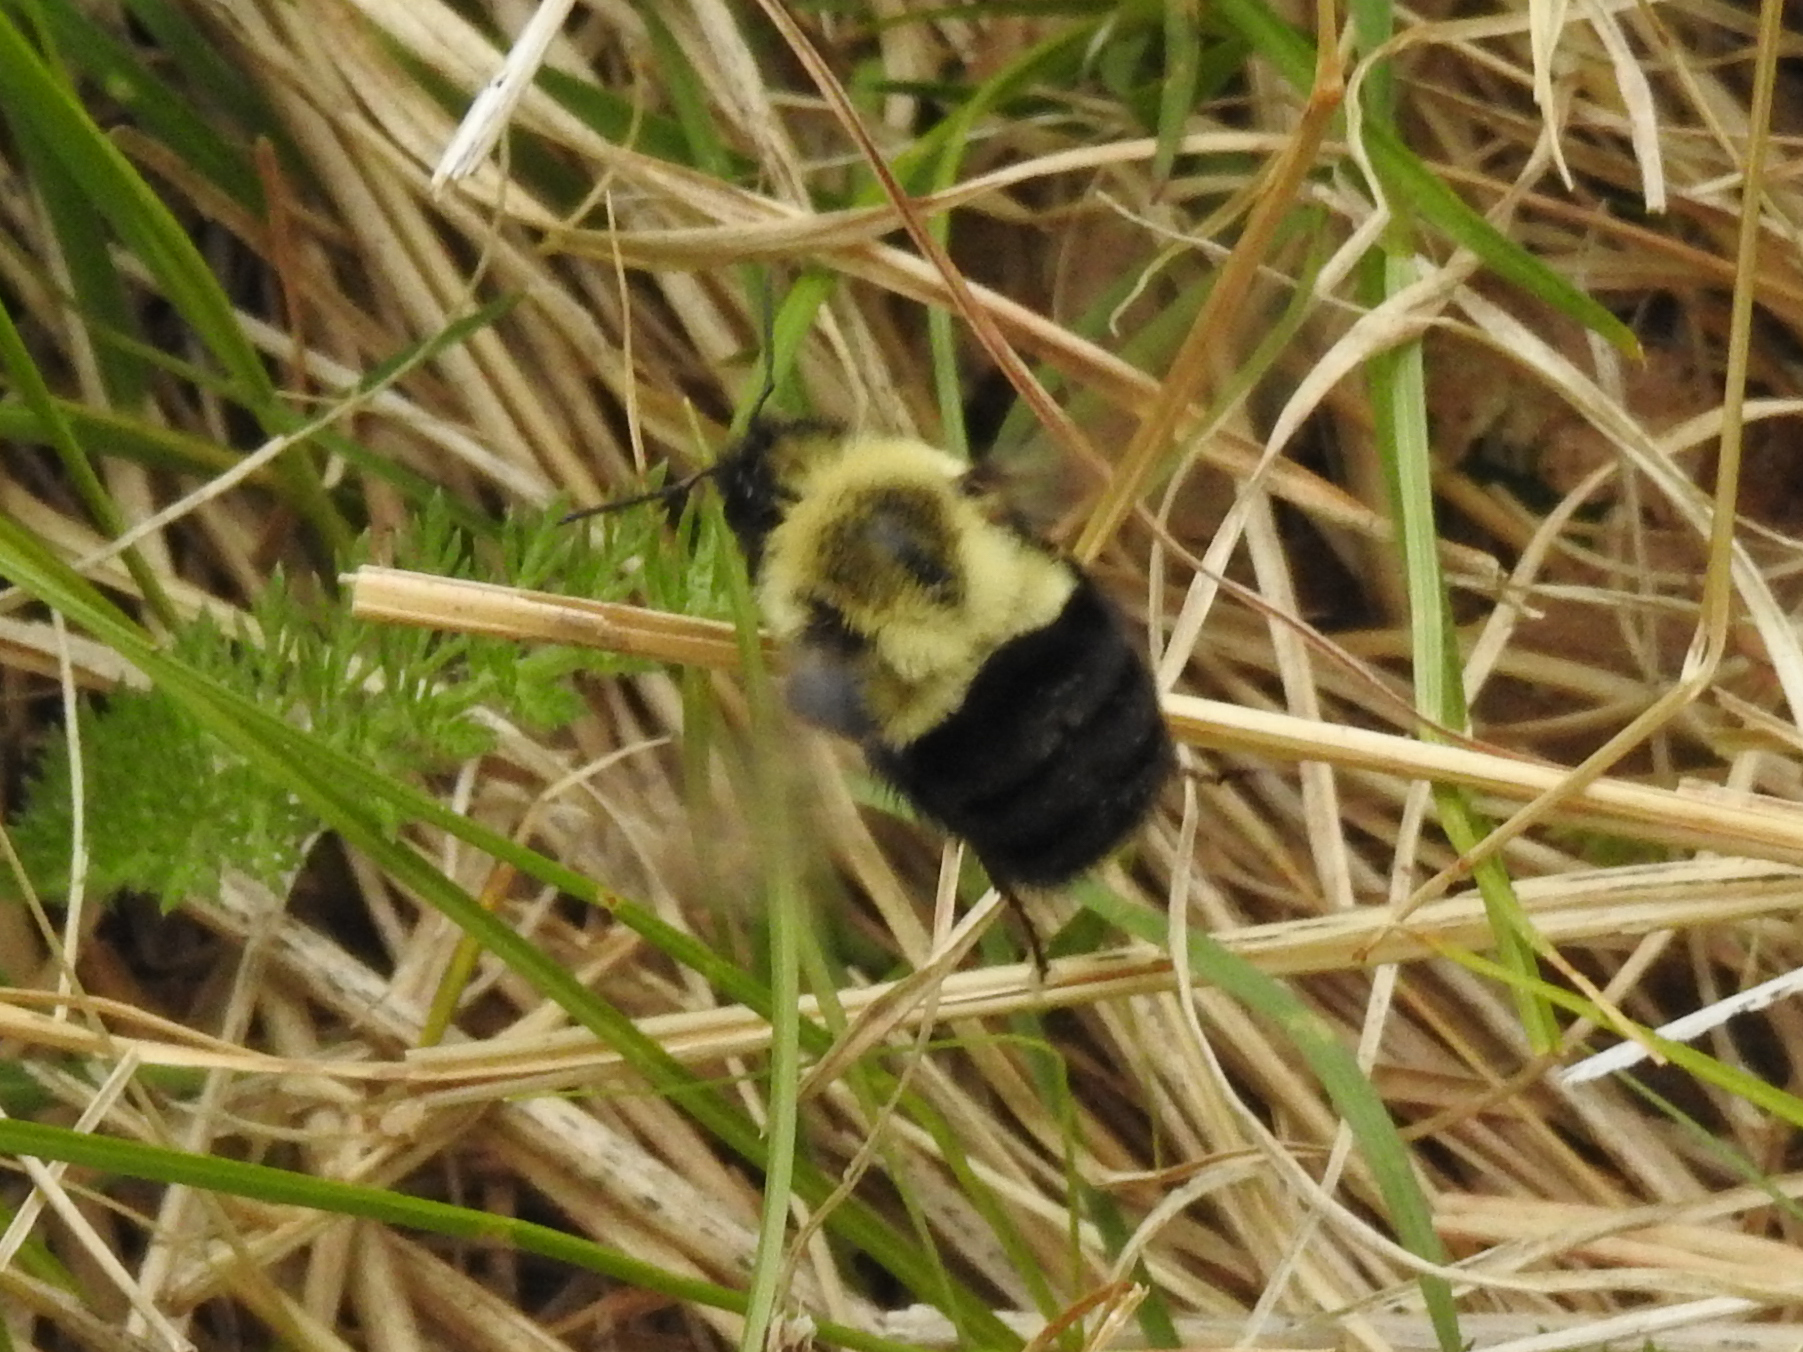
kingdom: Animalia
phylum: Arthropoda
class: Insecta
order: Hymenoptera
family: Apidae
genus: Bombus
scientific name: Bombus impatiens
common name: Common eastern bumble bee
